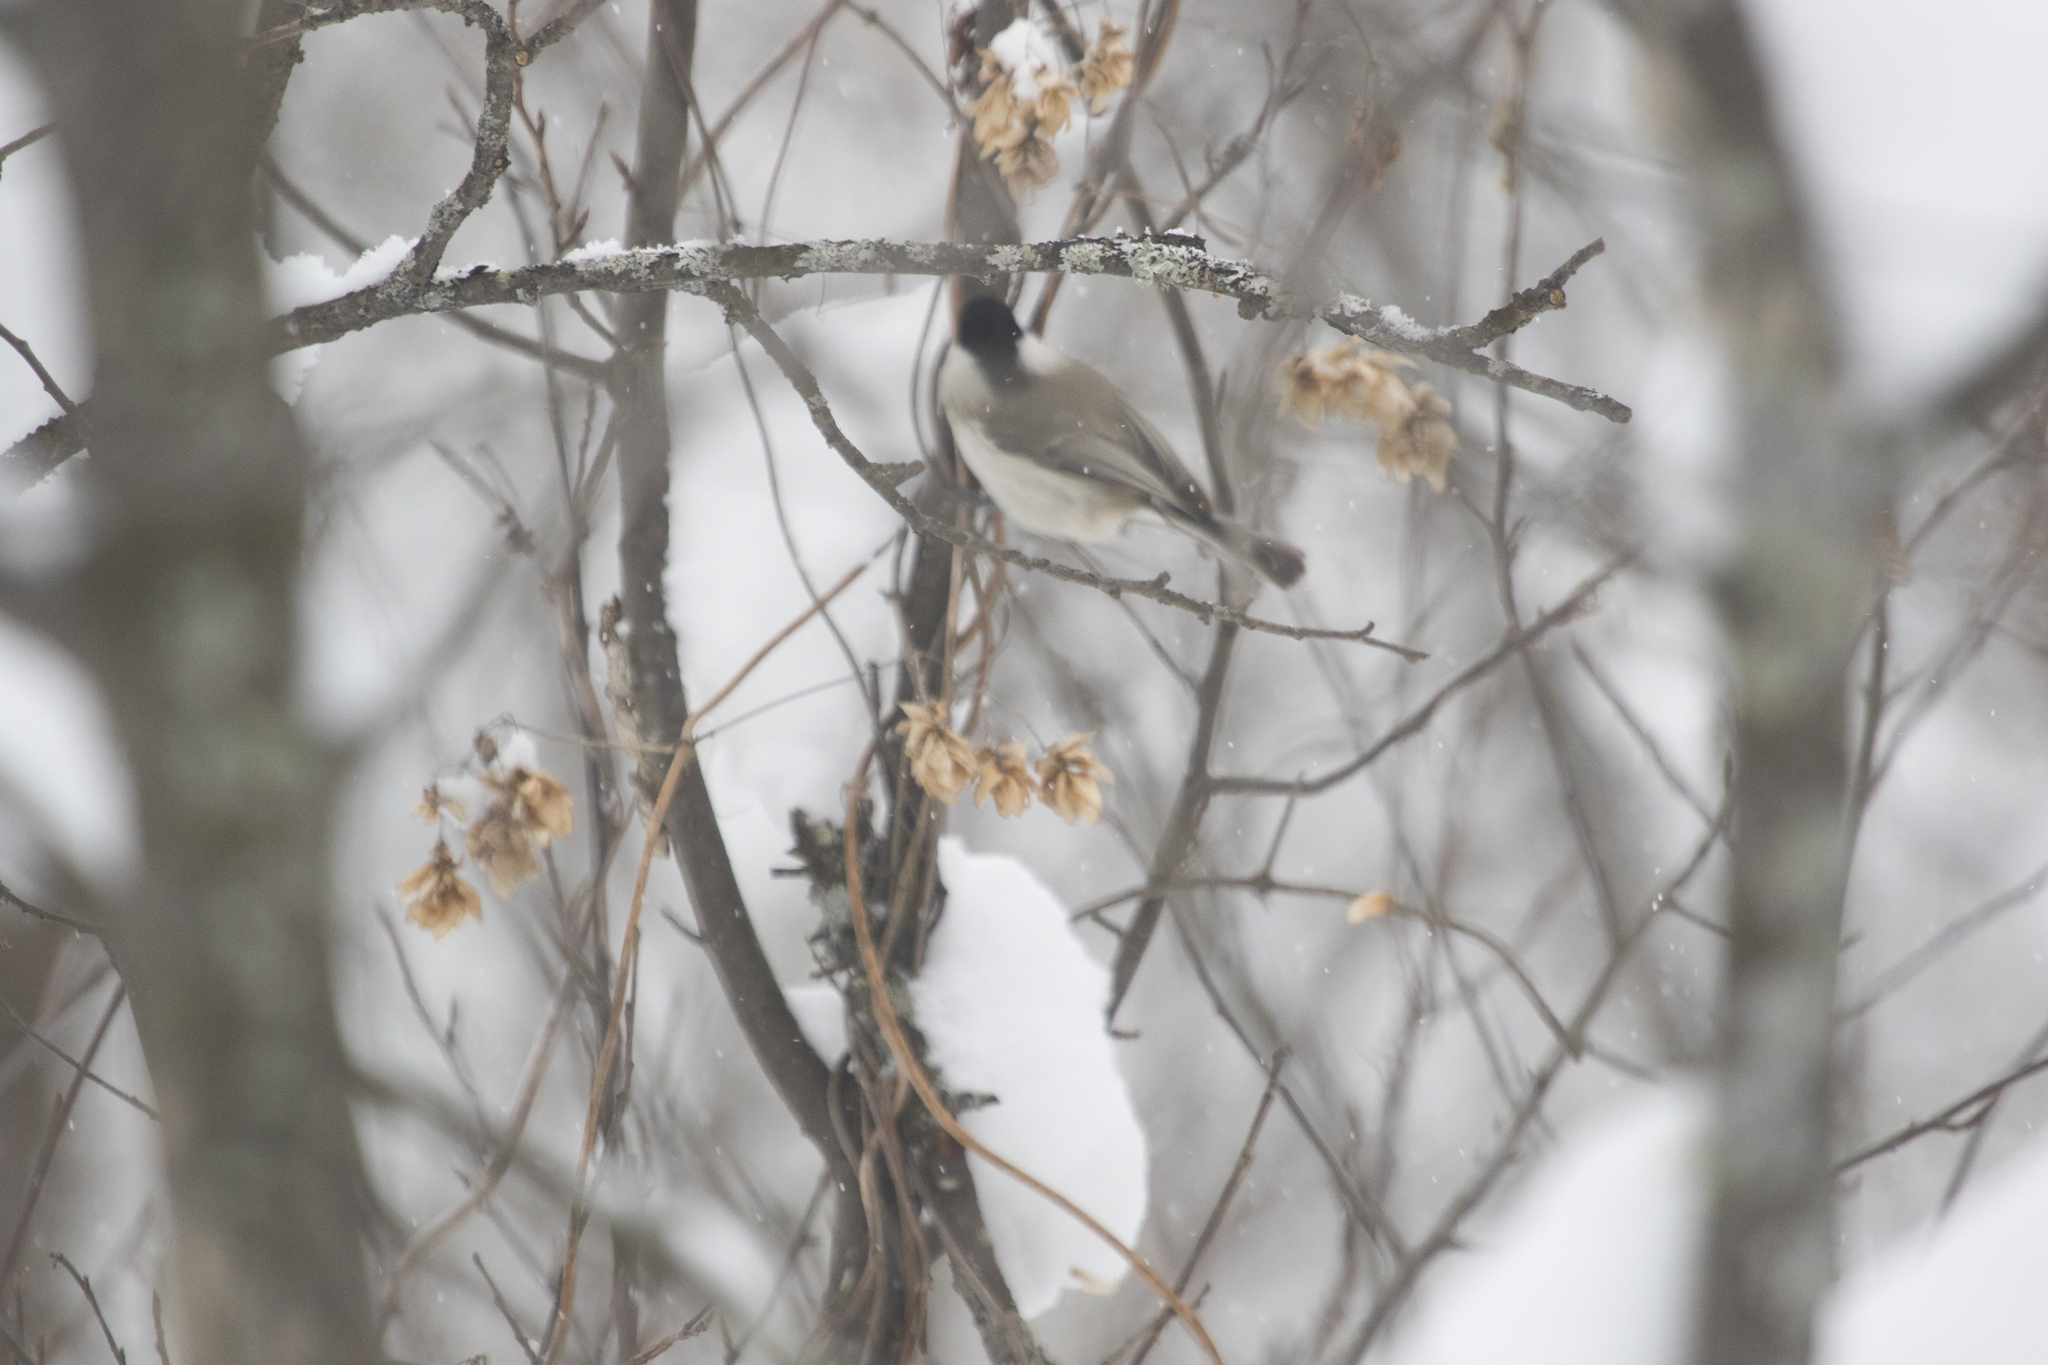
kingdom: Animalia
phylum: Chordata
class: Aves
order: Passeriformes
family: Paridae
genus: Poecile
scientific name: Poecile montanus
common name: Willow tit
